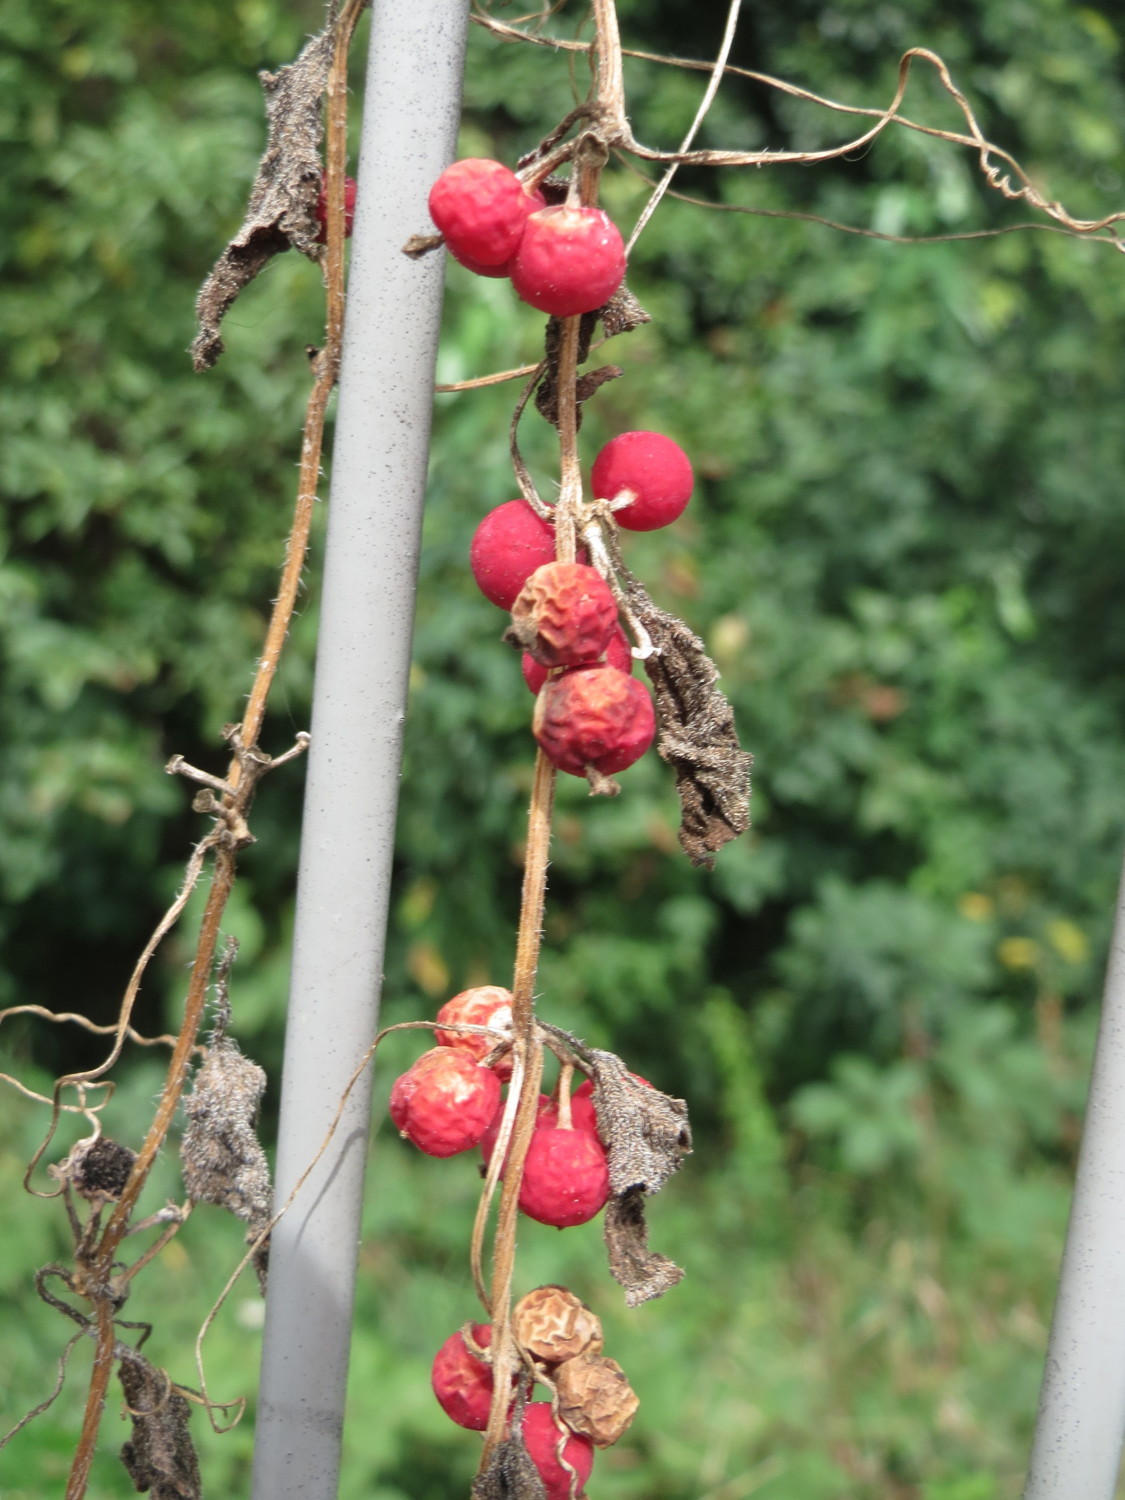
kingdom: Plantae
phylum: Tracheophyta
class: Magnoliopsida
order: Cucurbitales
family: Cucurbitaceae
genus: Bryonia
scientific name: Bryonia dioica
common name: White bryony
